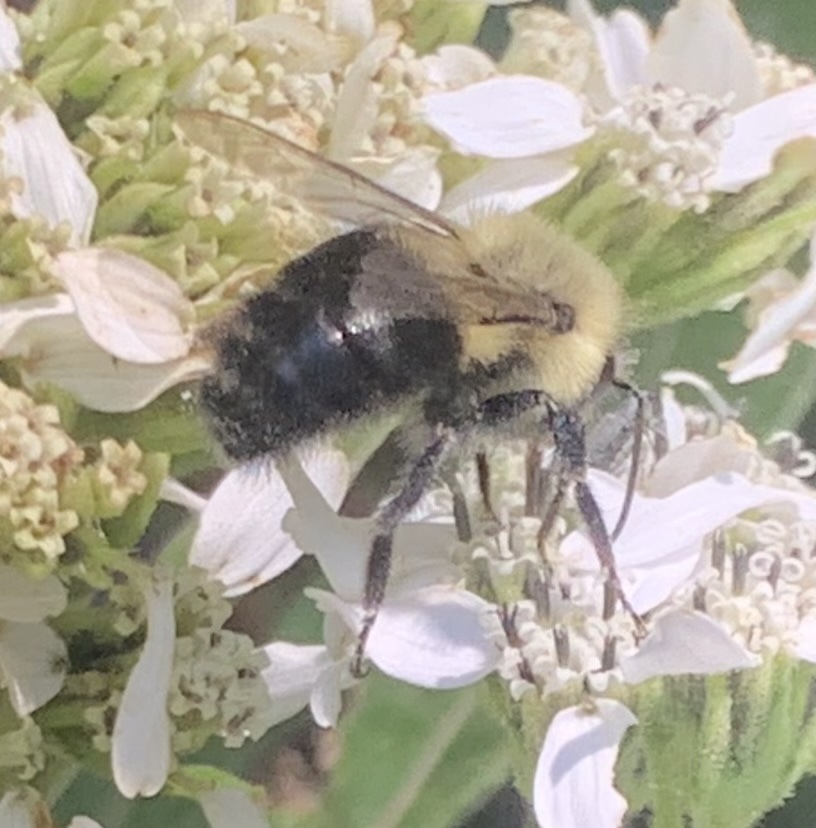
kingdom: Animalia
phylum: Arthropoda
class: Insecta
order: Hymenoptera
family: Apidae
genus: Bombus
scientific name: Bombus impatiens
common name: Common eastern bumble bee
